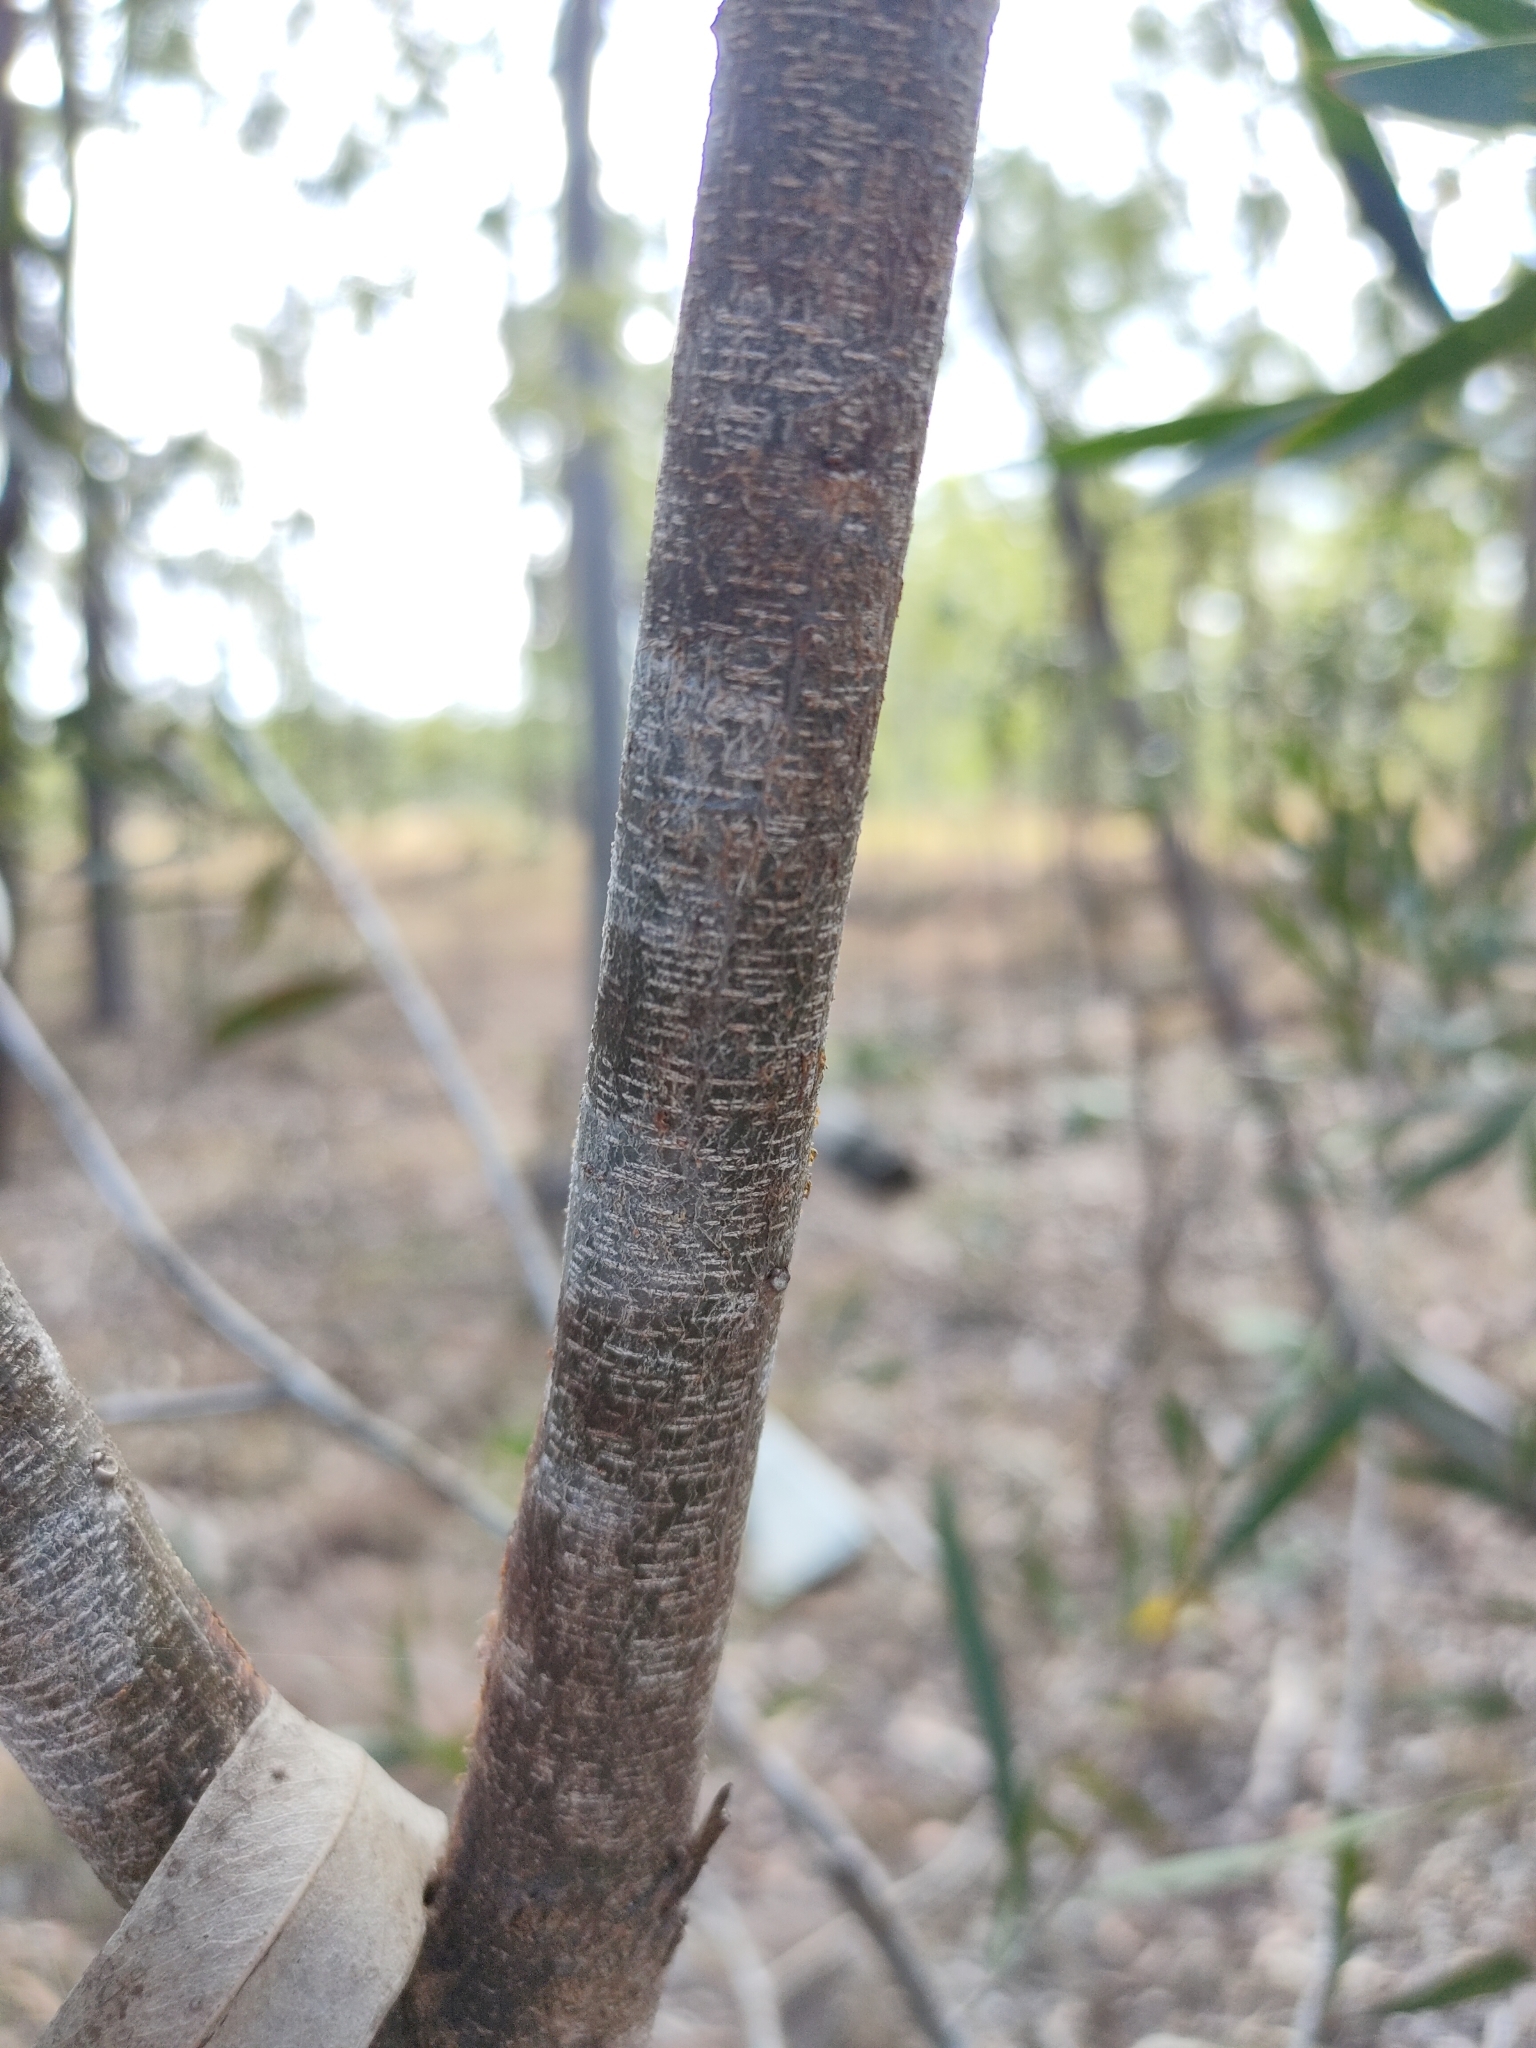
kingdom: Plantae
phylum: Tracheophyta
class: Magnoliopsida
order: Fabales
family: Fabaceae
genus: Acacia
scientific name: Acacia maidenii
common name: Maiden's wattle
